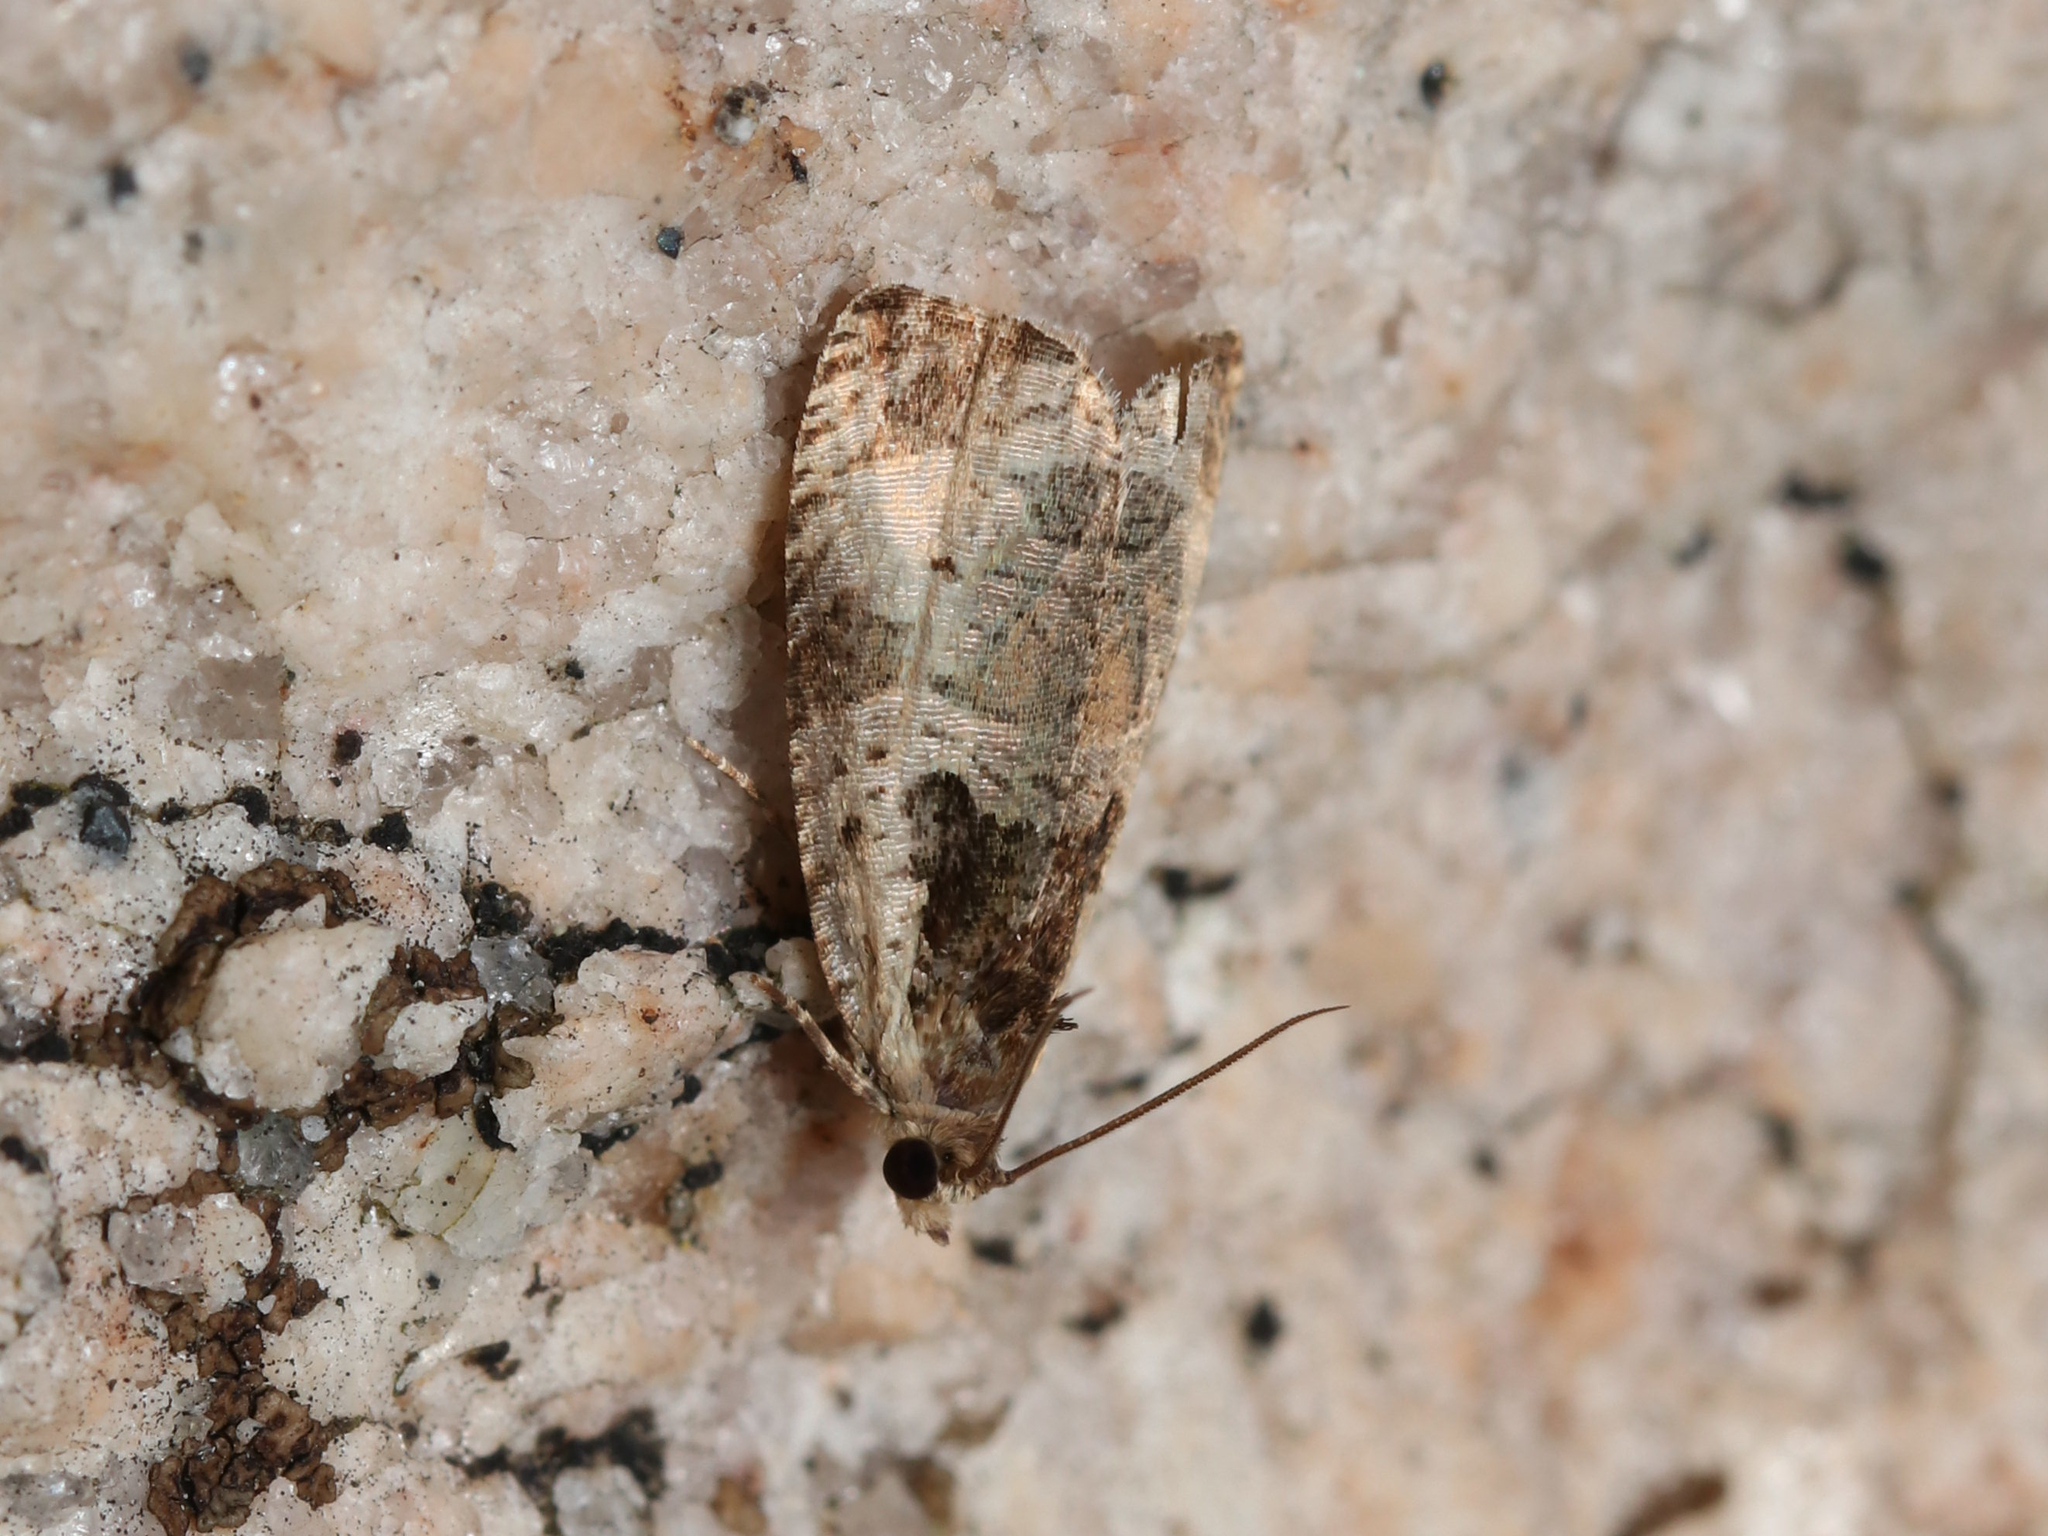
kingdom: Animalia
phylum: Arthropoda
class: Insecta
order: Lepidoptera
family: Tortricidae
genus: Olethreutes
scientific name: Olethreutes punctanum
